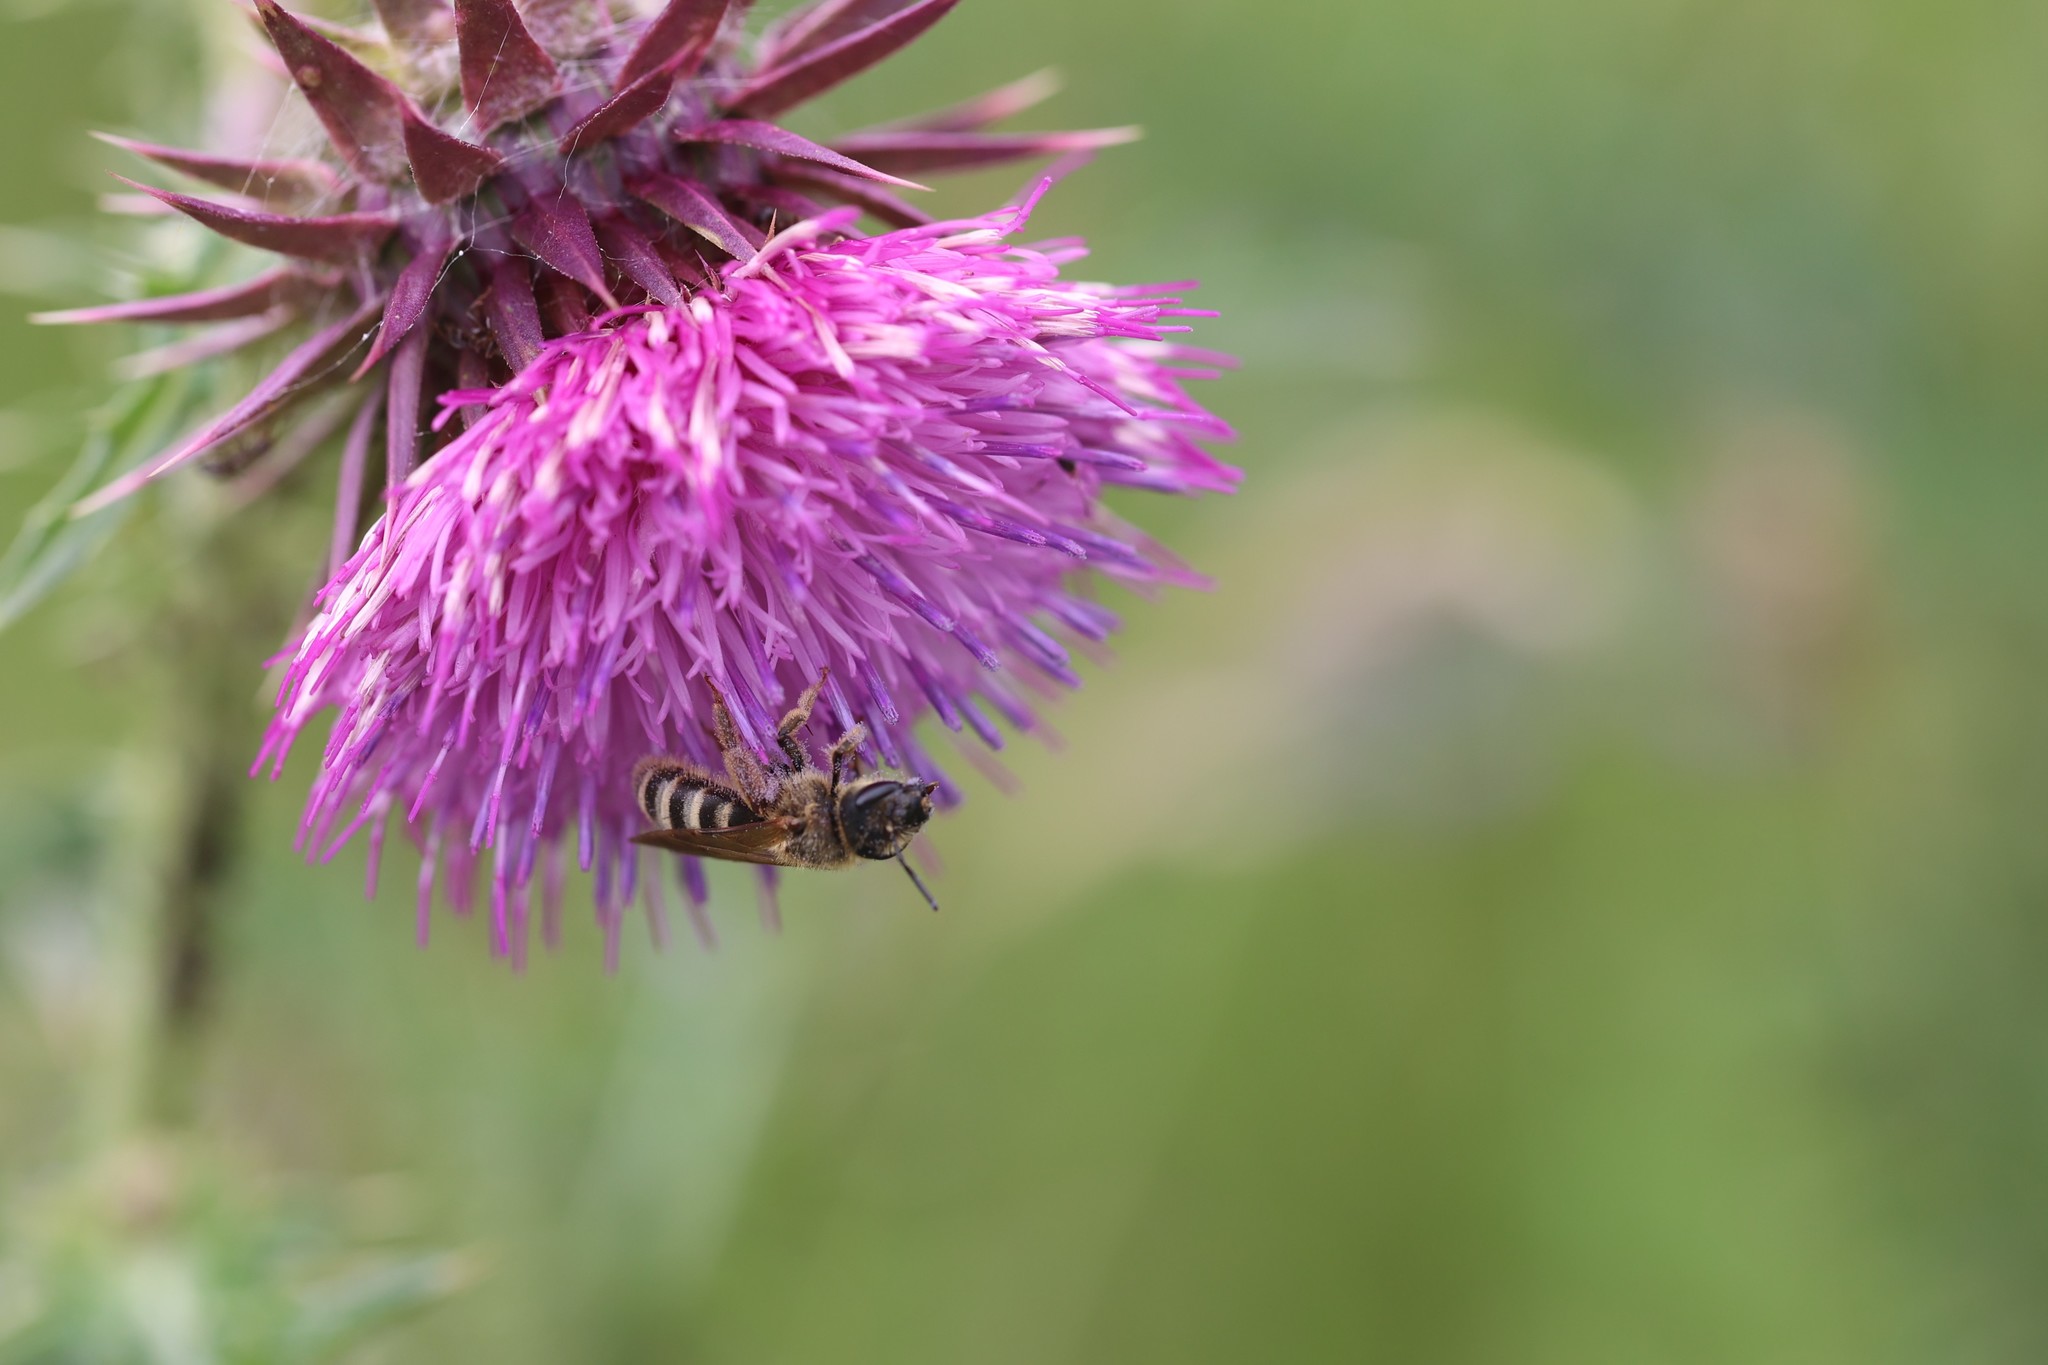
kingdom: Animalia
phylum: Arthropoda
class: Insecta
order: Hymenoptera
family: Halictidae
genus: Halictus
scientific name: Halictus scabiosae
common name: Great banded furrow bee
